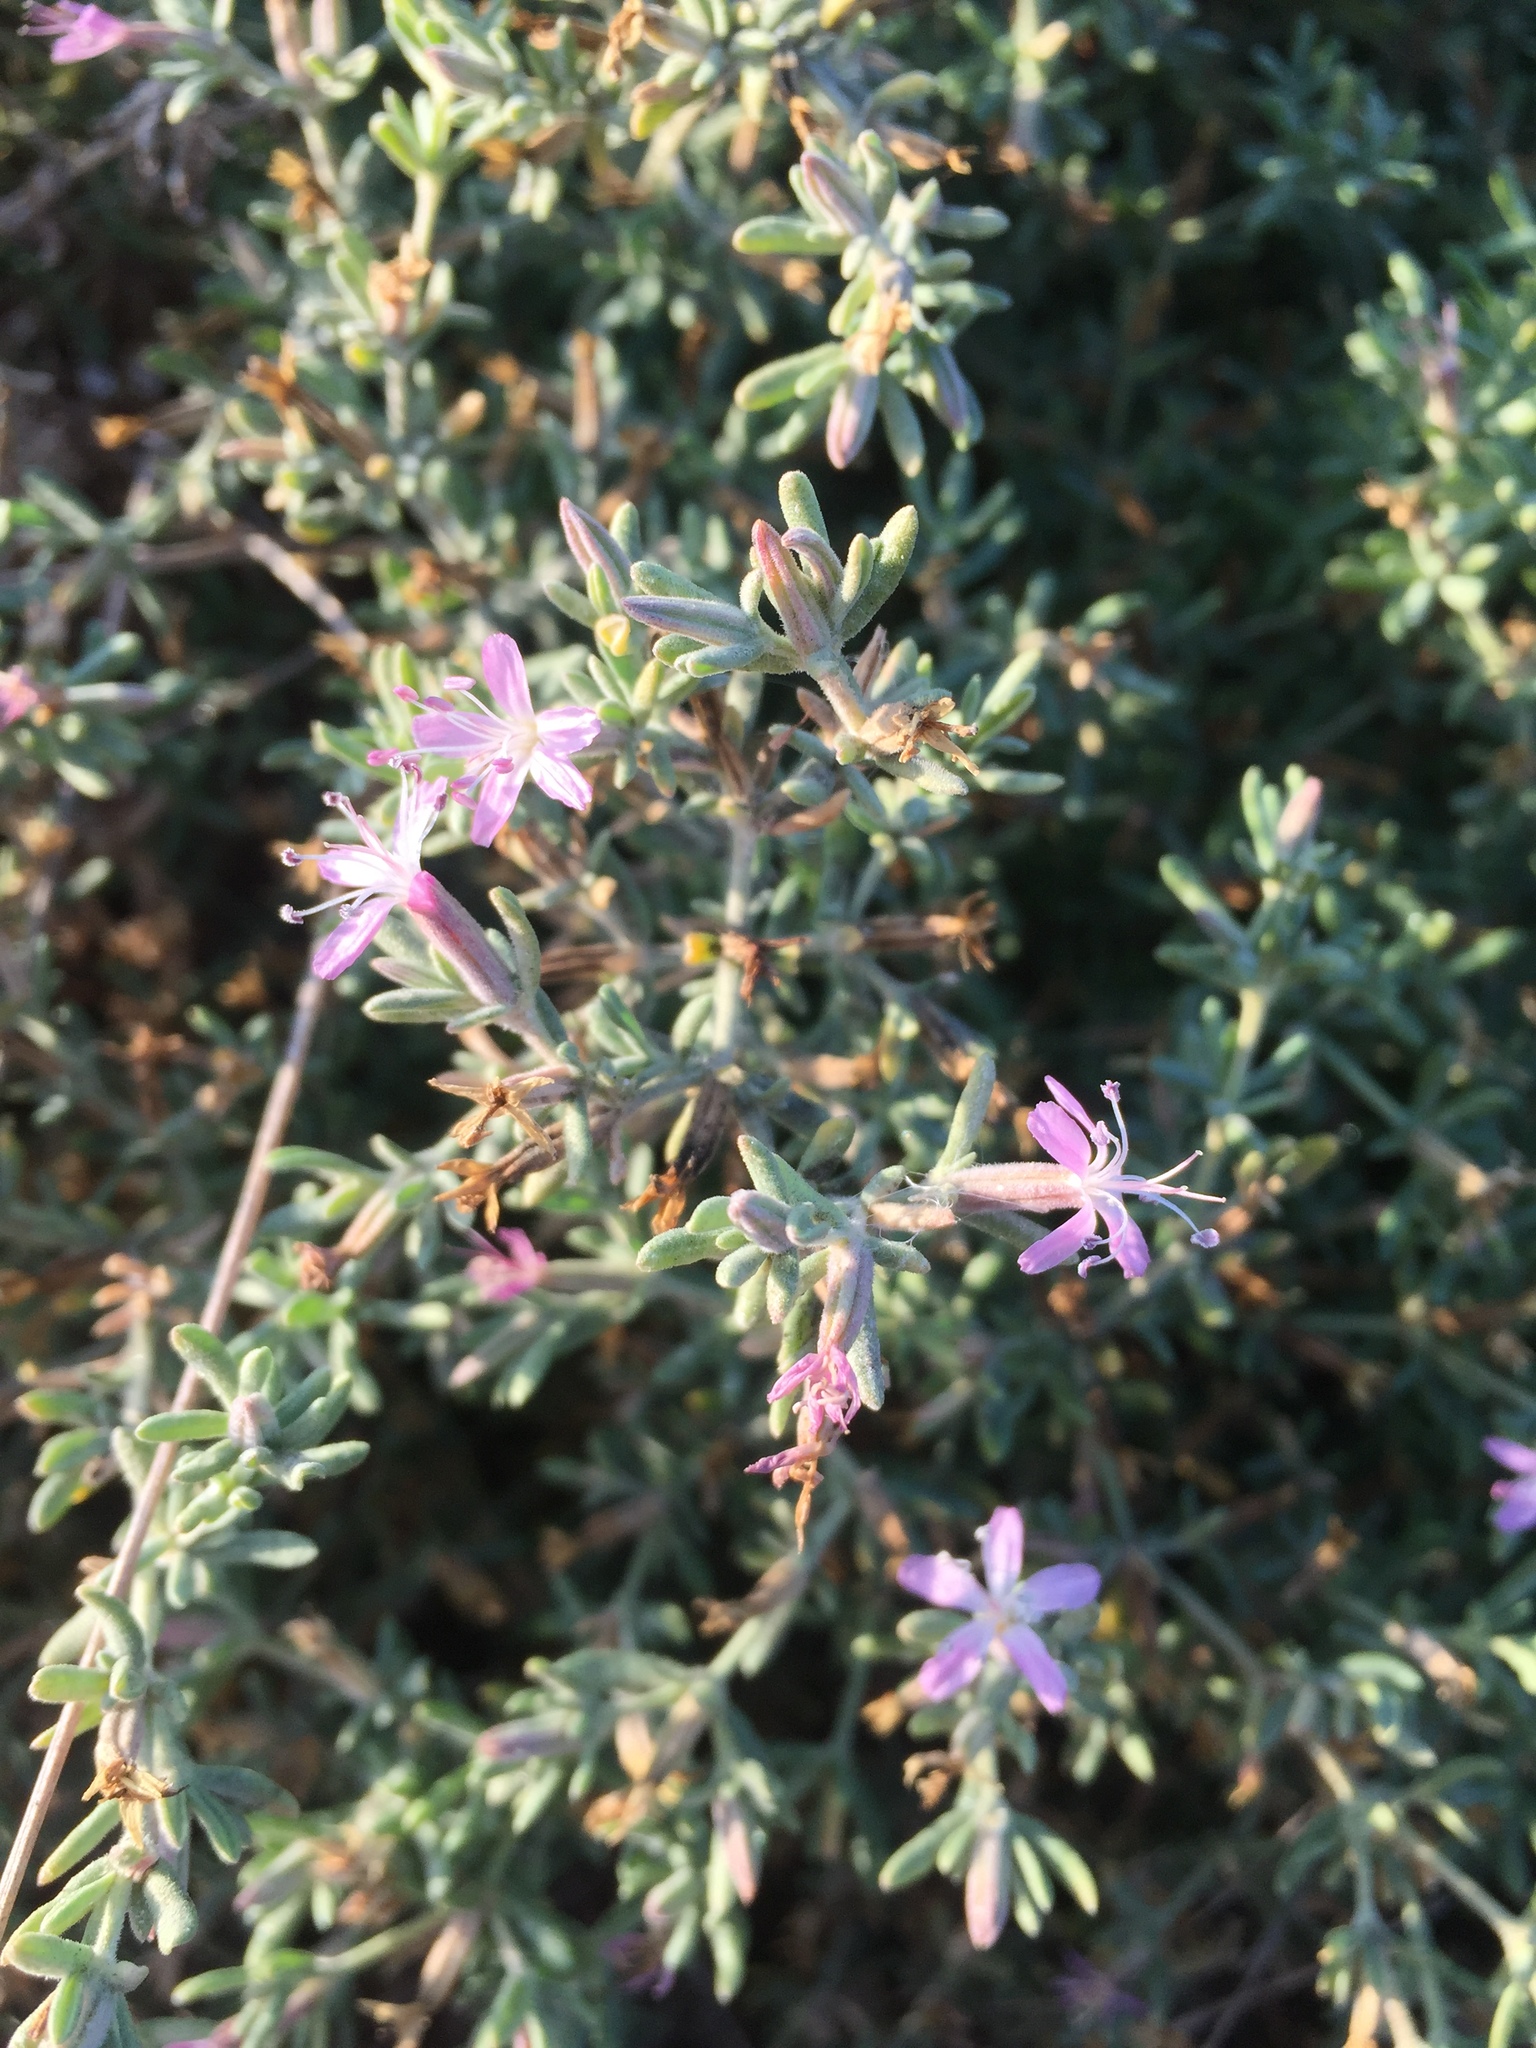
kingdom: Plantae
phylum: Tracheophyta
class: Magnoliopsida
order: Caryophyllales
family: Frankeniaceae
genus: Frankenia
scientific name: Frankenia salina
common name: Alkali seaheath
